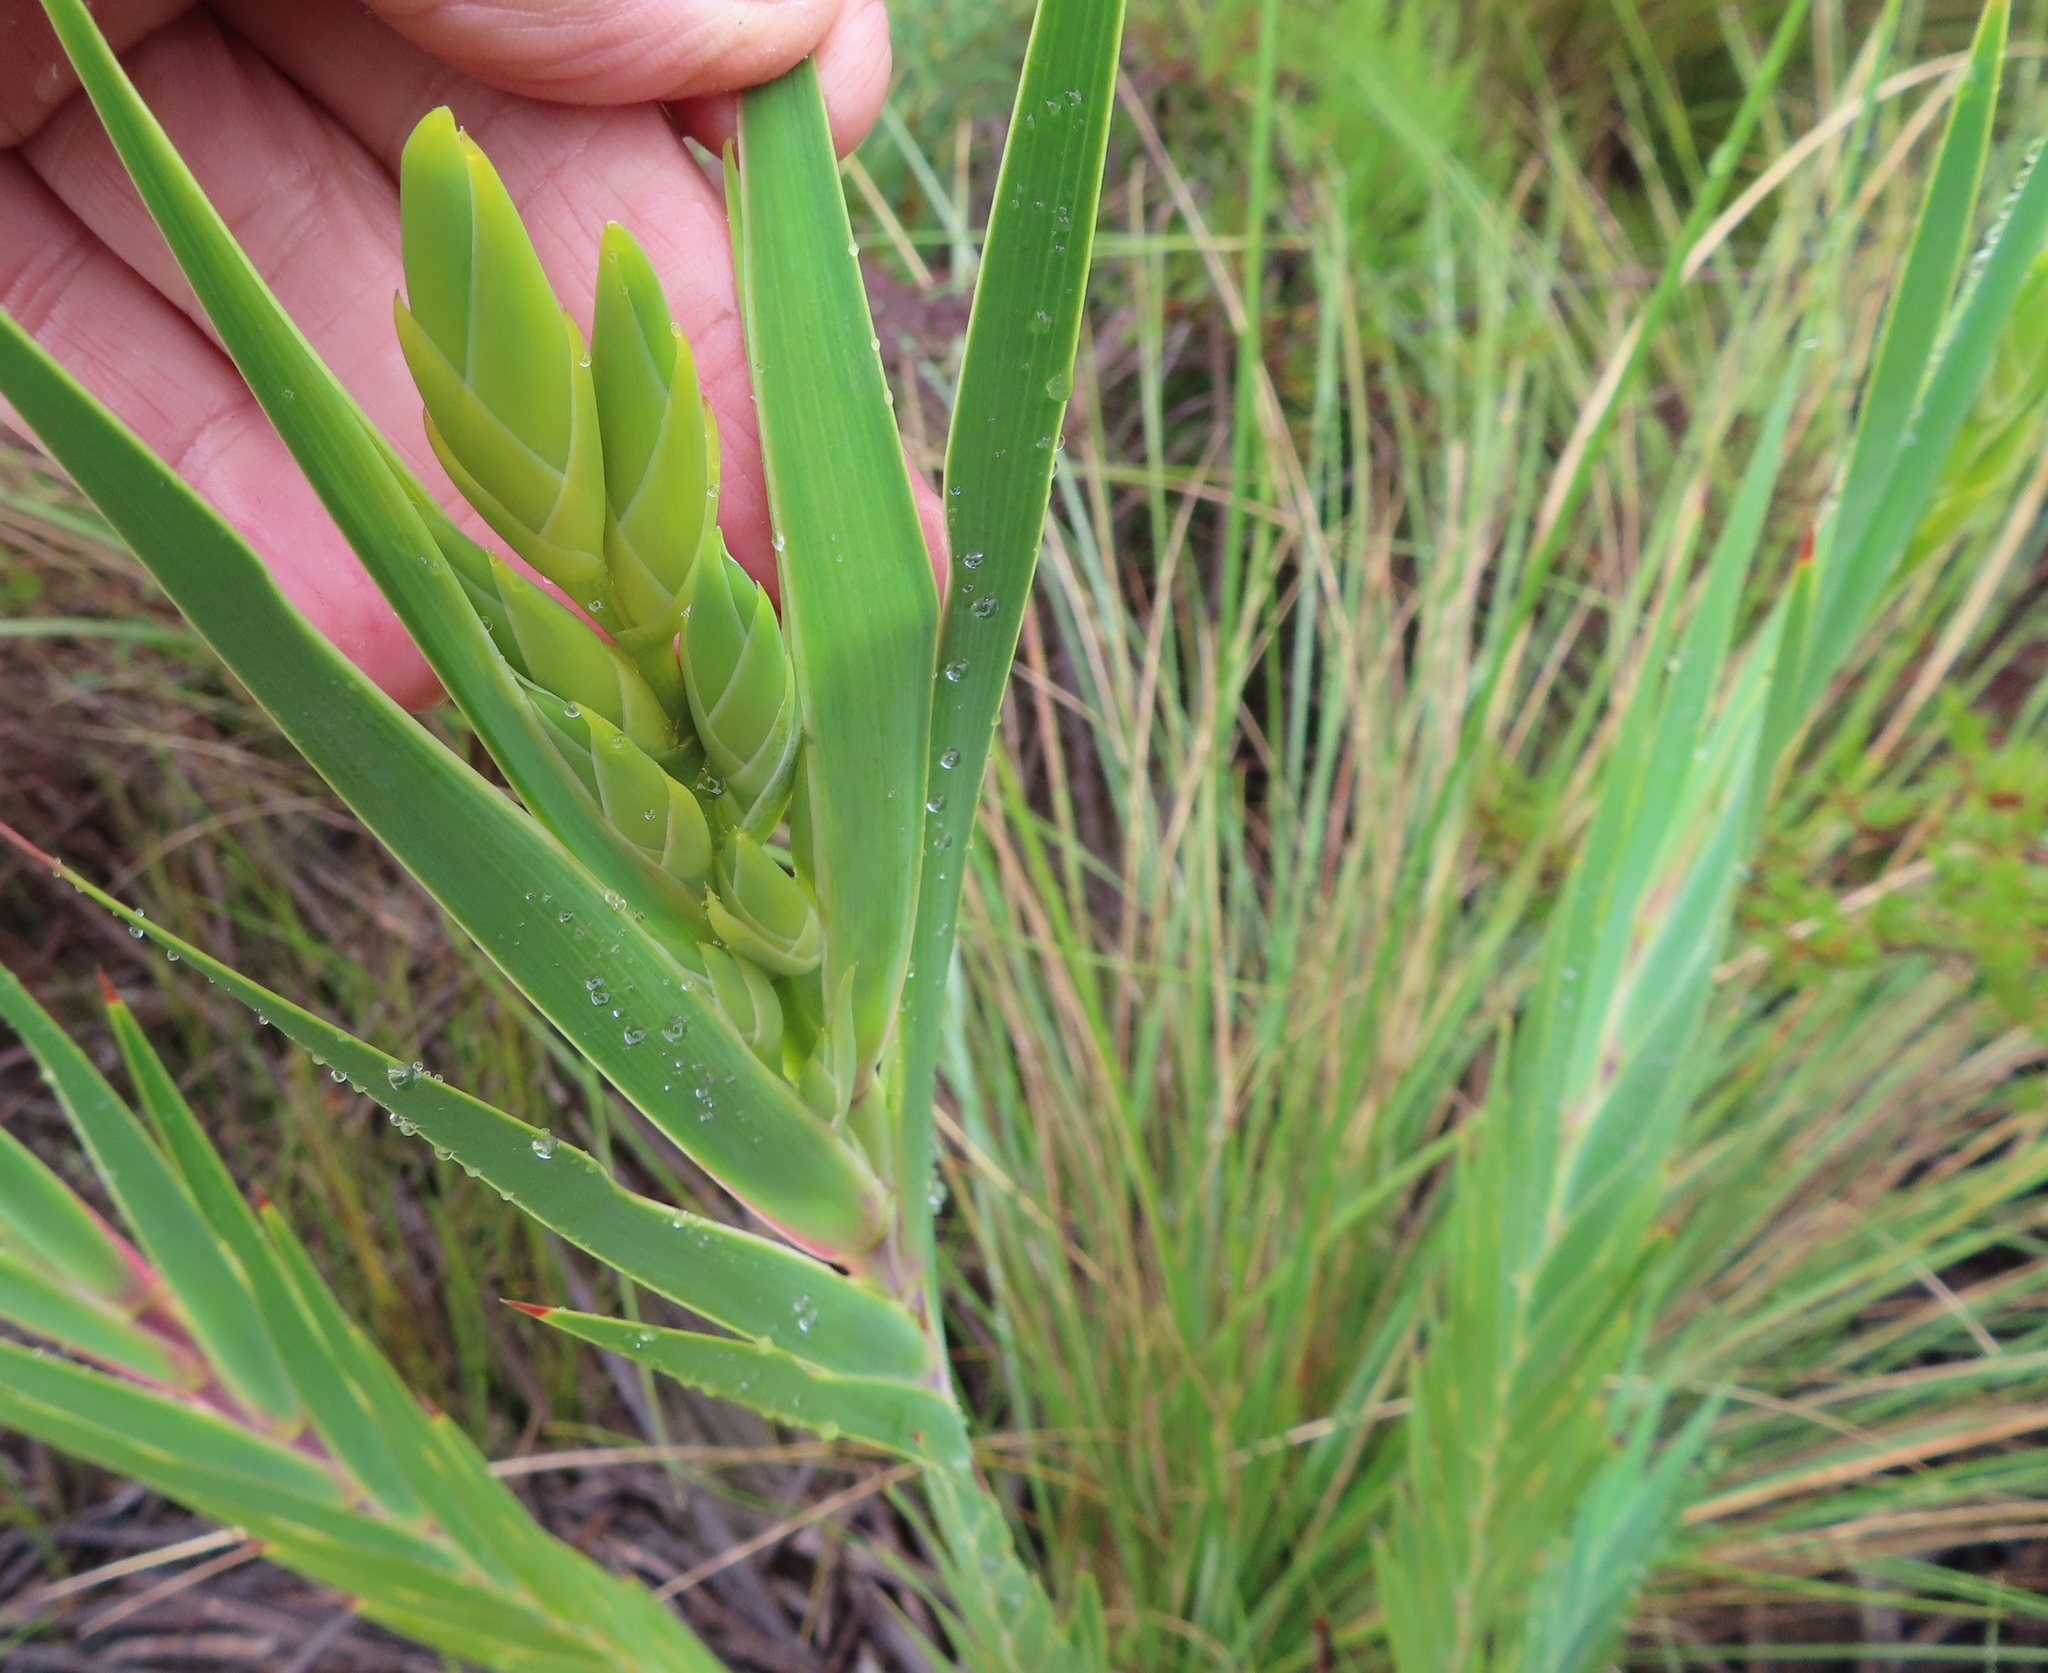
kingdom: Plantae
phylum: Tracheophyta
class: Liliopsida
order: Asparagales
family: Iridaceae
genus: Witsenia
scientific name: Witsenia maura
